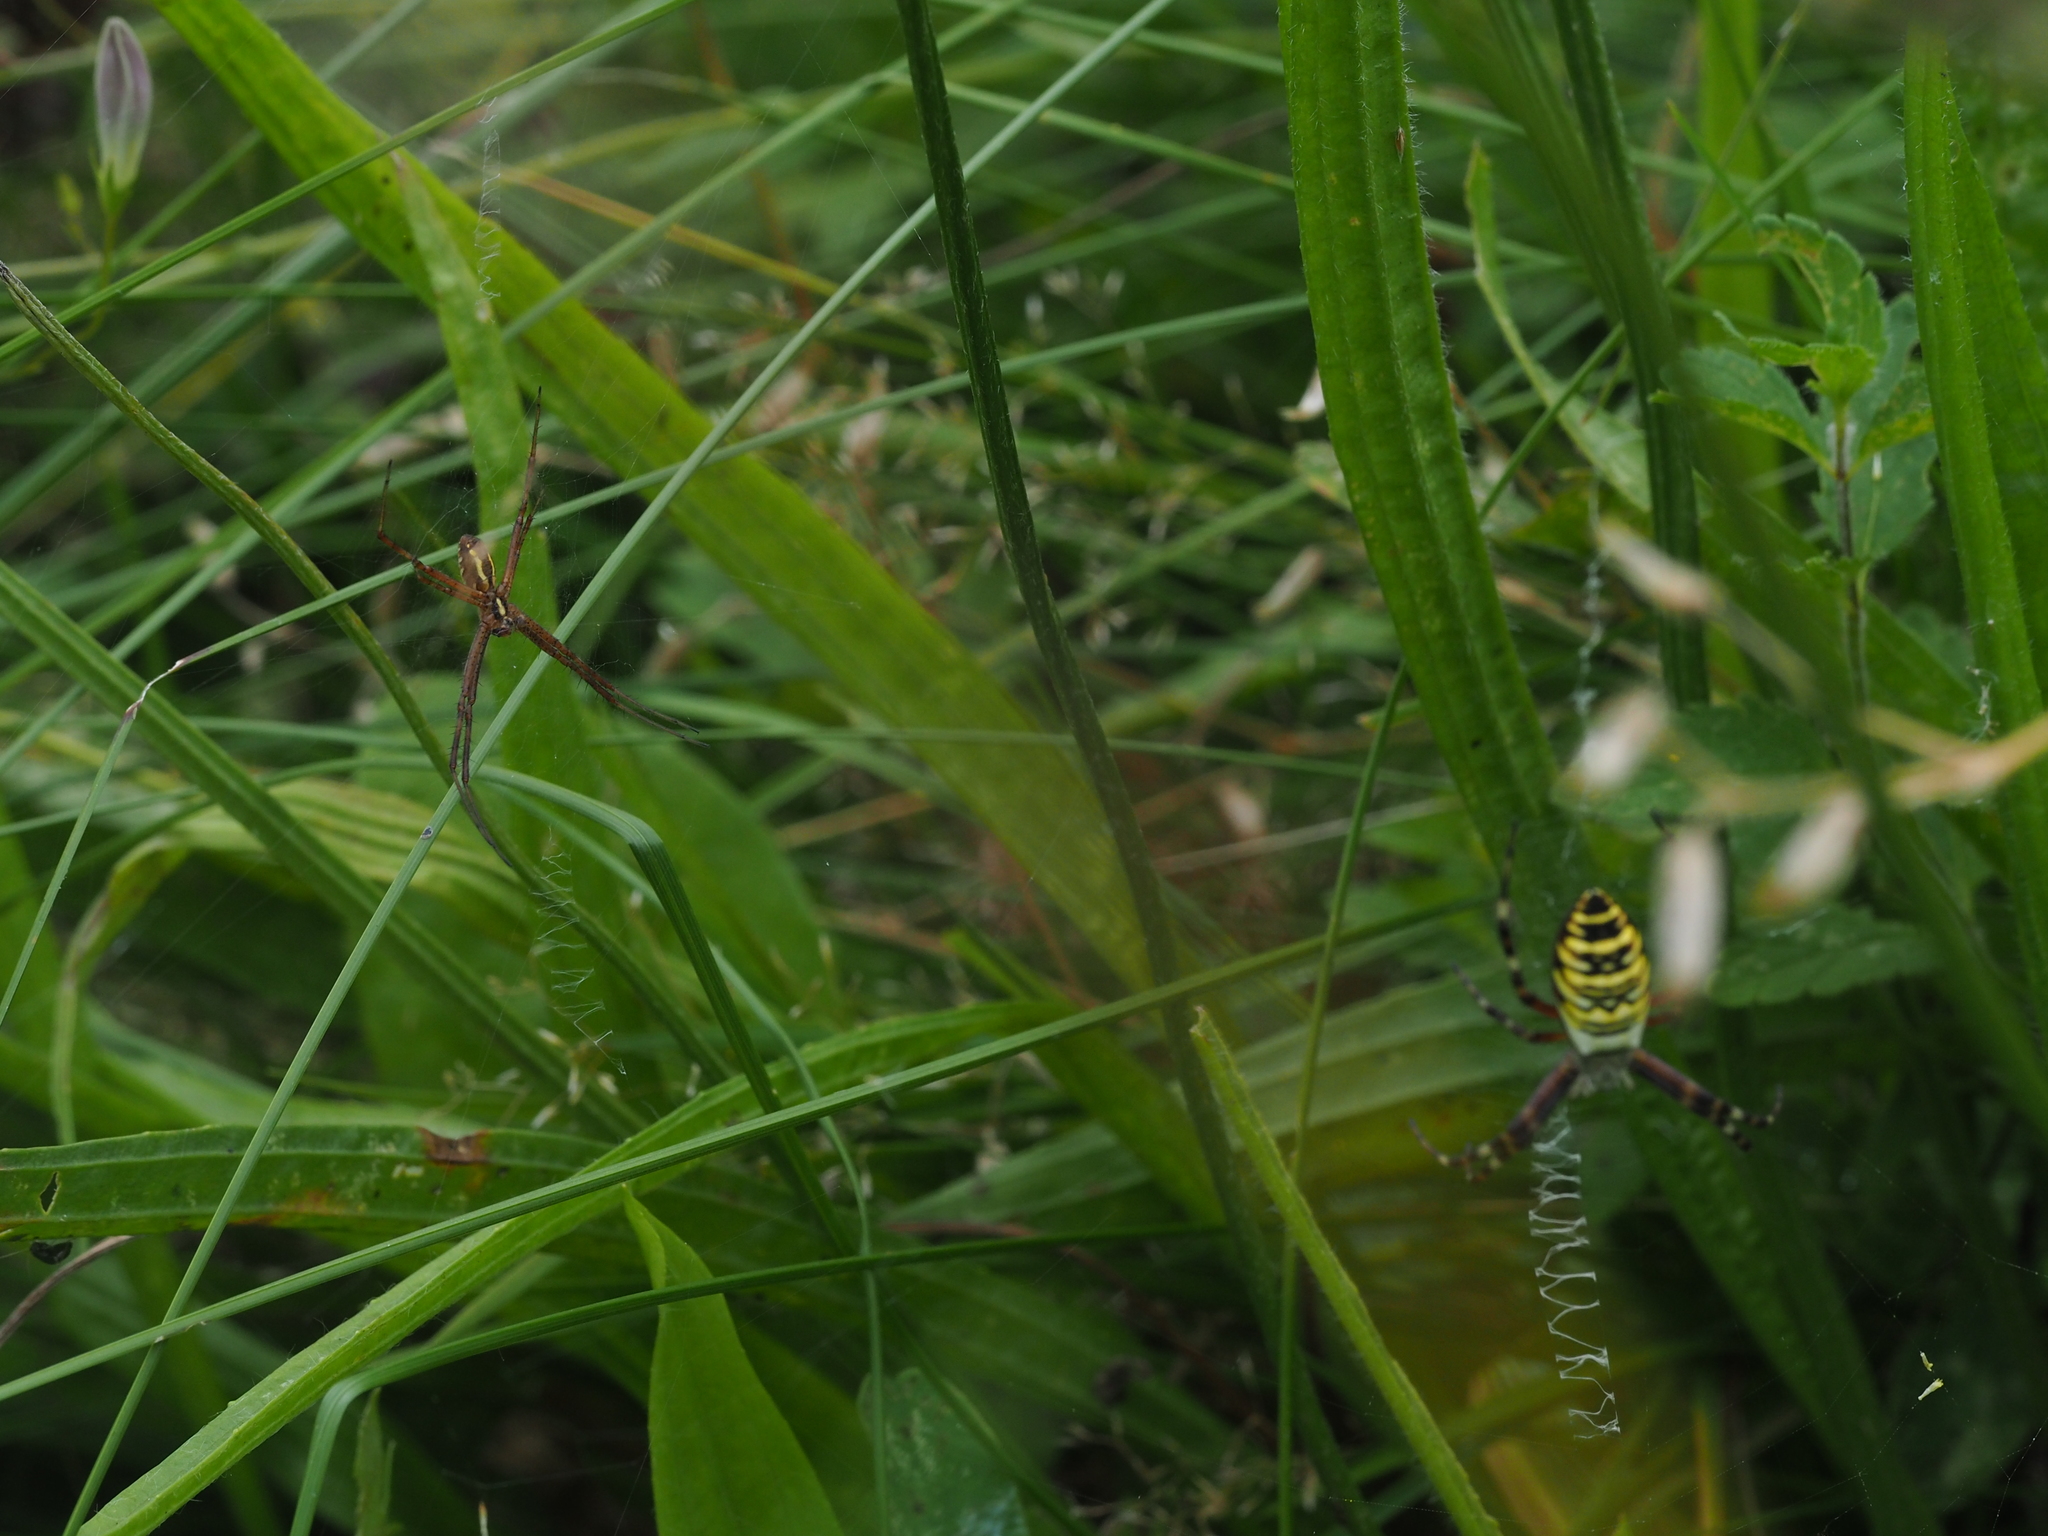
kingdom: Animalia
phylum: Arthropoda
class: Arachnida
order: Araneae
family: Araneidae
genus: Argiope
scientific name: Argiope bruennichi
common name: Wasp spider
